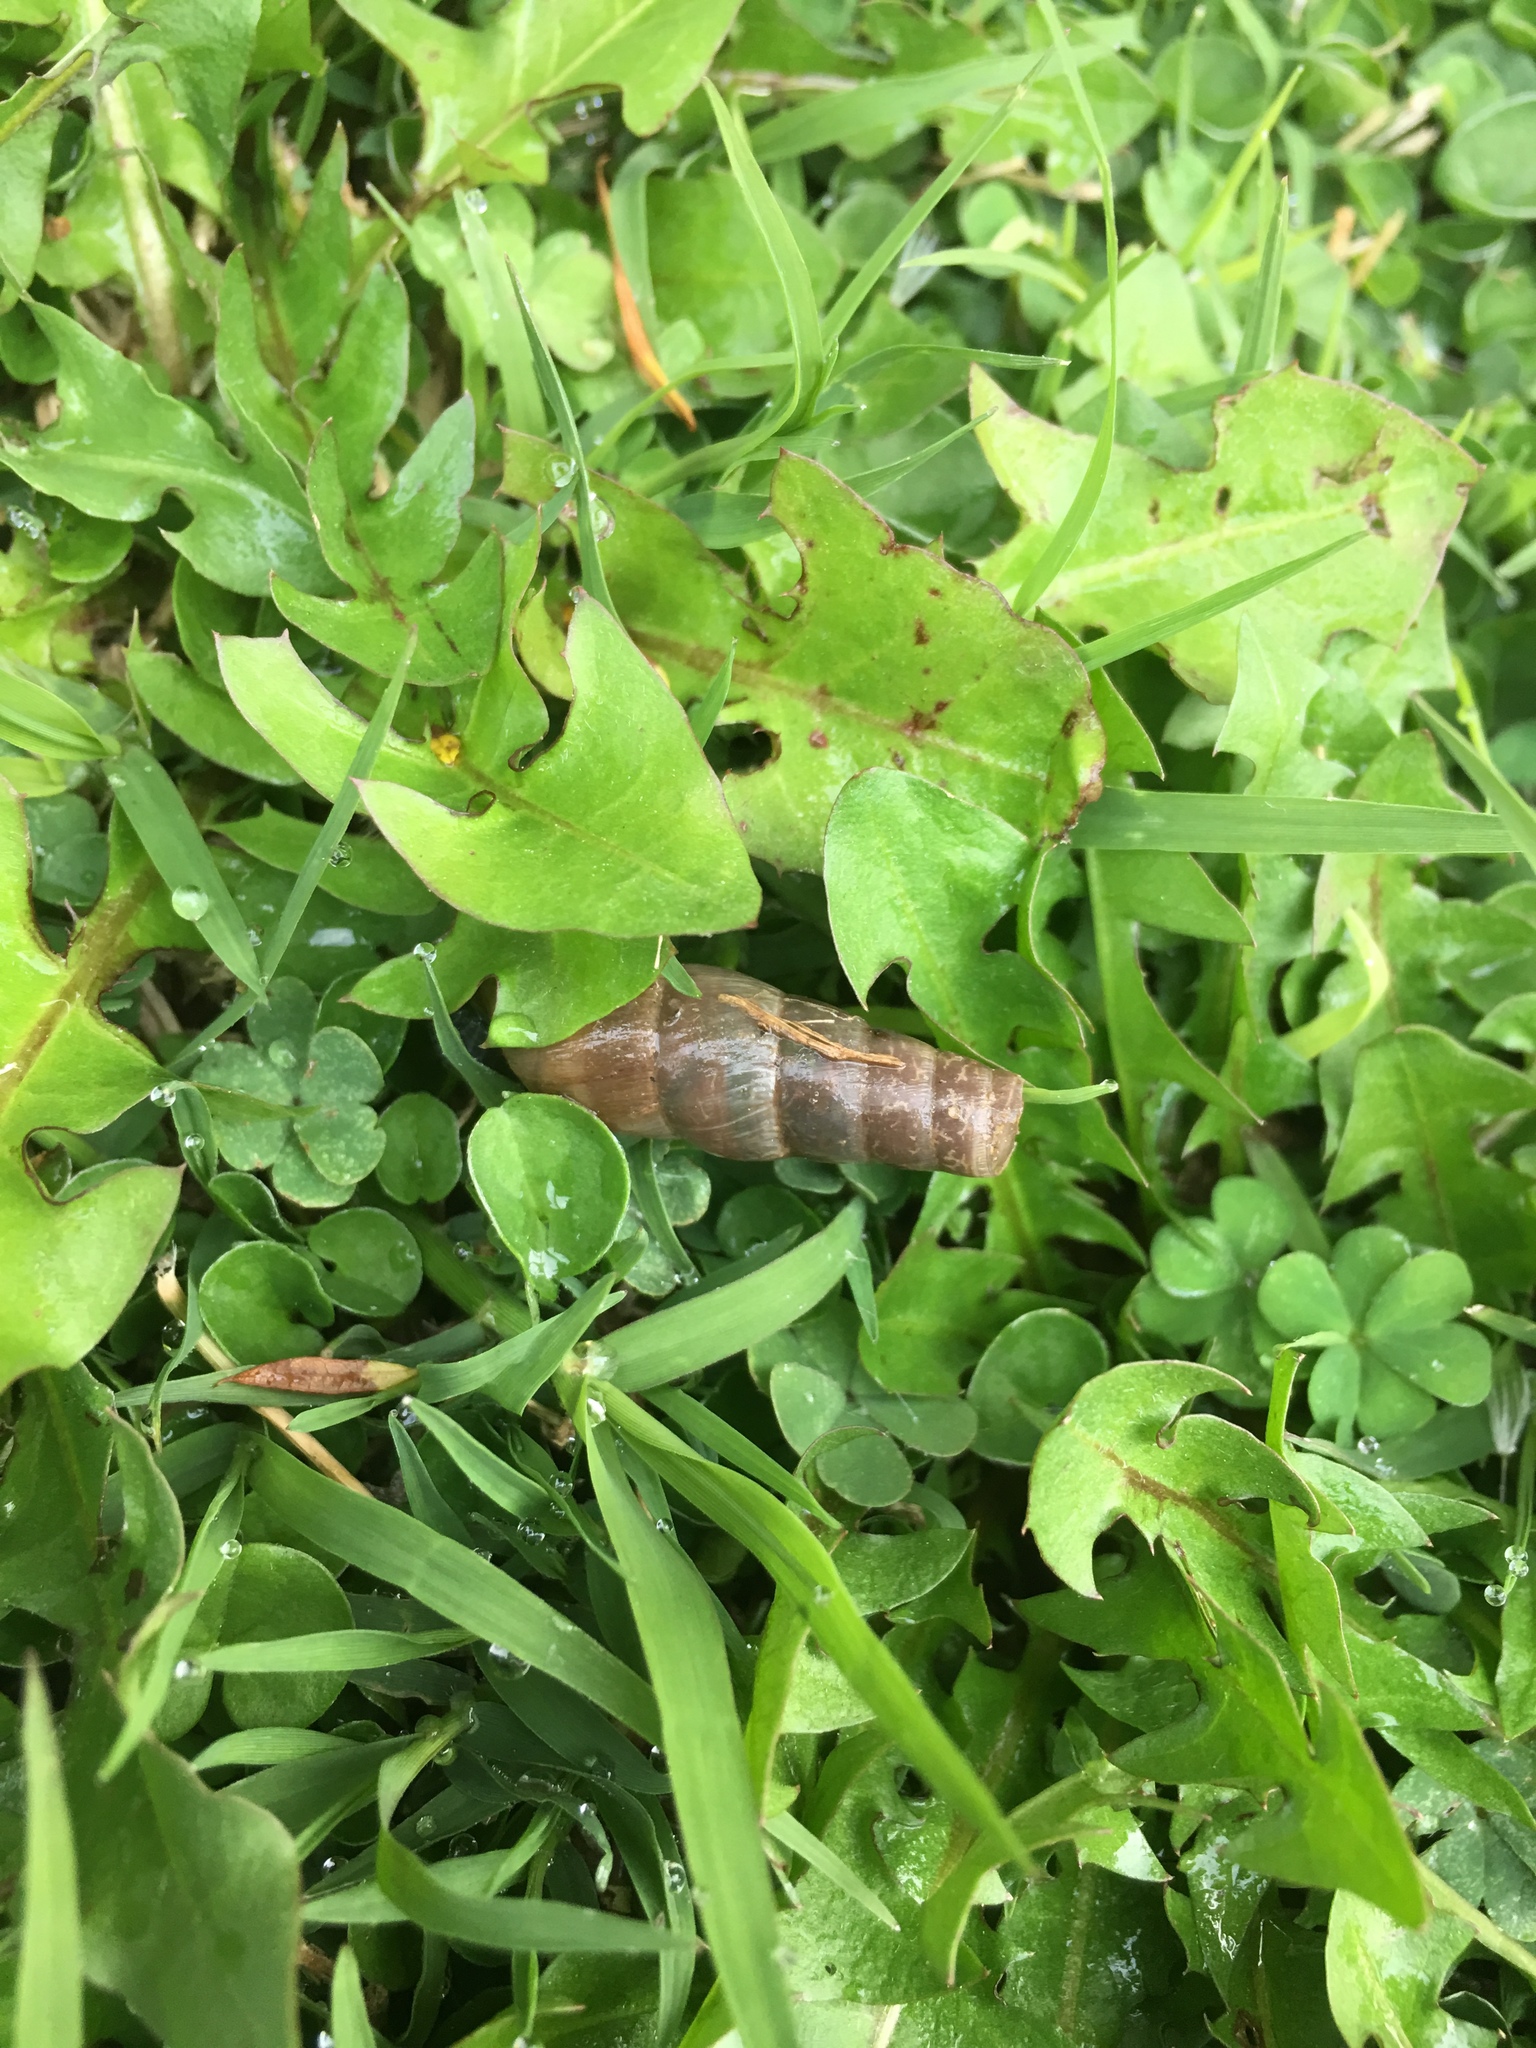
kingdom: Animalia
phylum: Mollusca
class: Gastropoda
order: Stylommatophora
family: Achatinidae
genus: Rumina
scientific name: Rumina decollata
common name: Decollate snail
